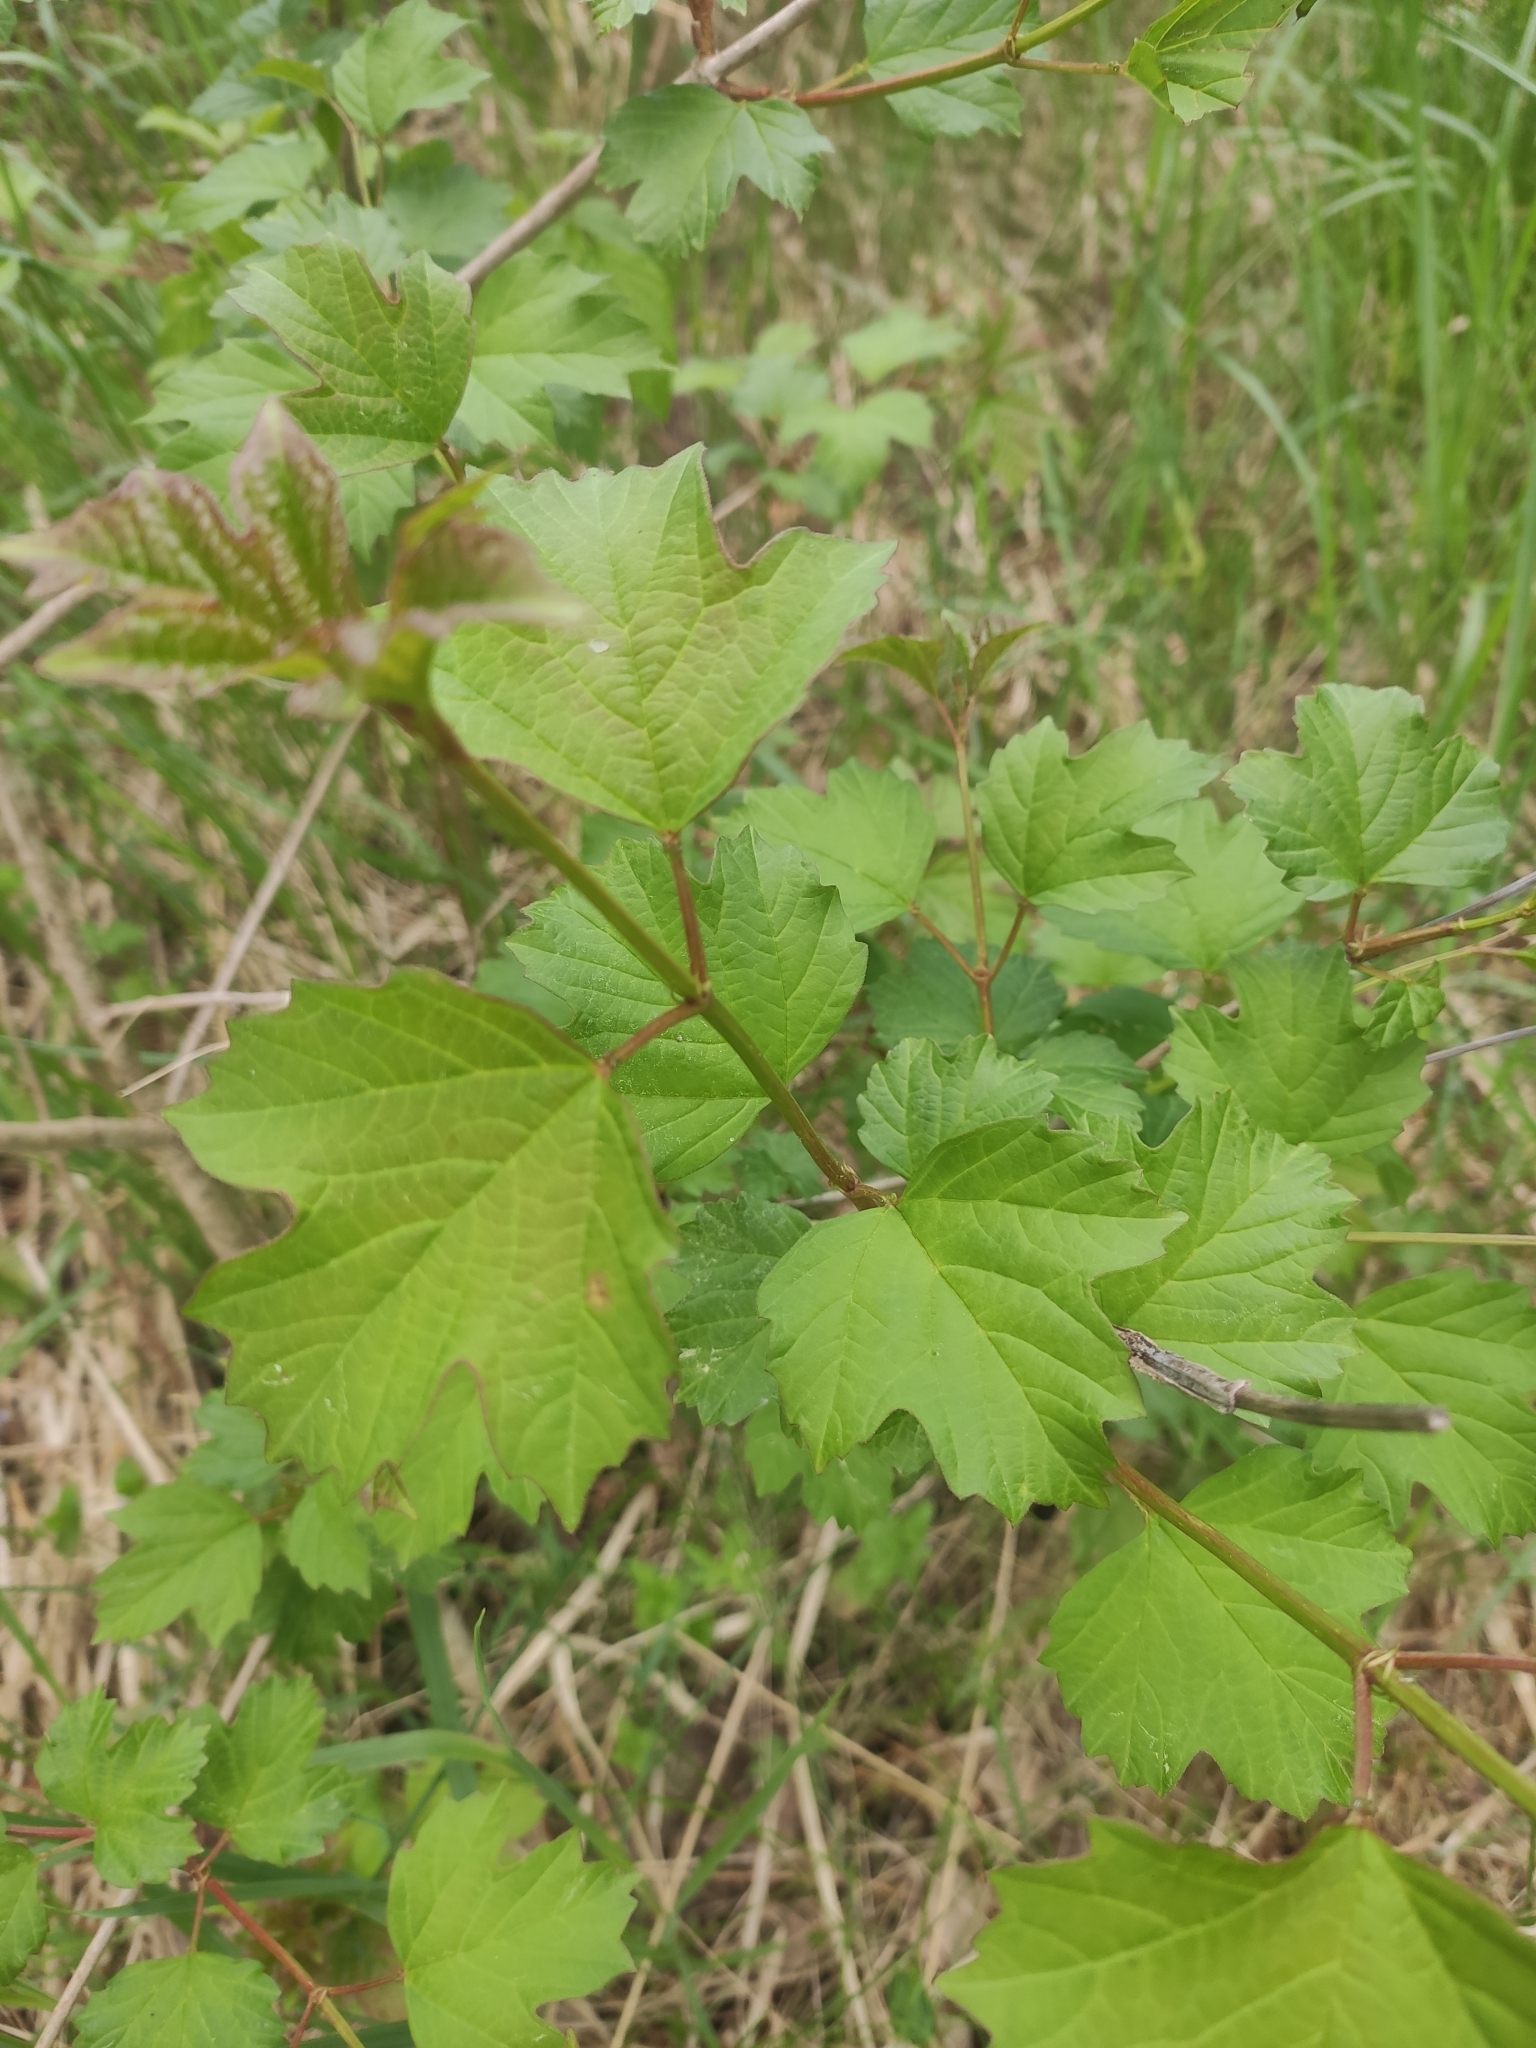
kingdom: Plantae
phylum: Tracheophyta
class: Magnoliopsida
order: Dipsacales
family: Viburnaceae
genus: Viburnum
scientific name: Viburnum opulus
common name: Guelder-rose
